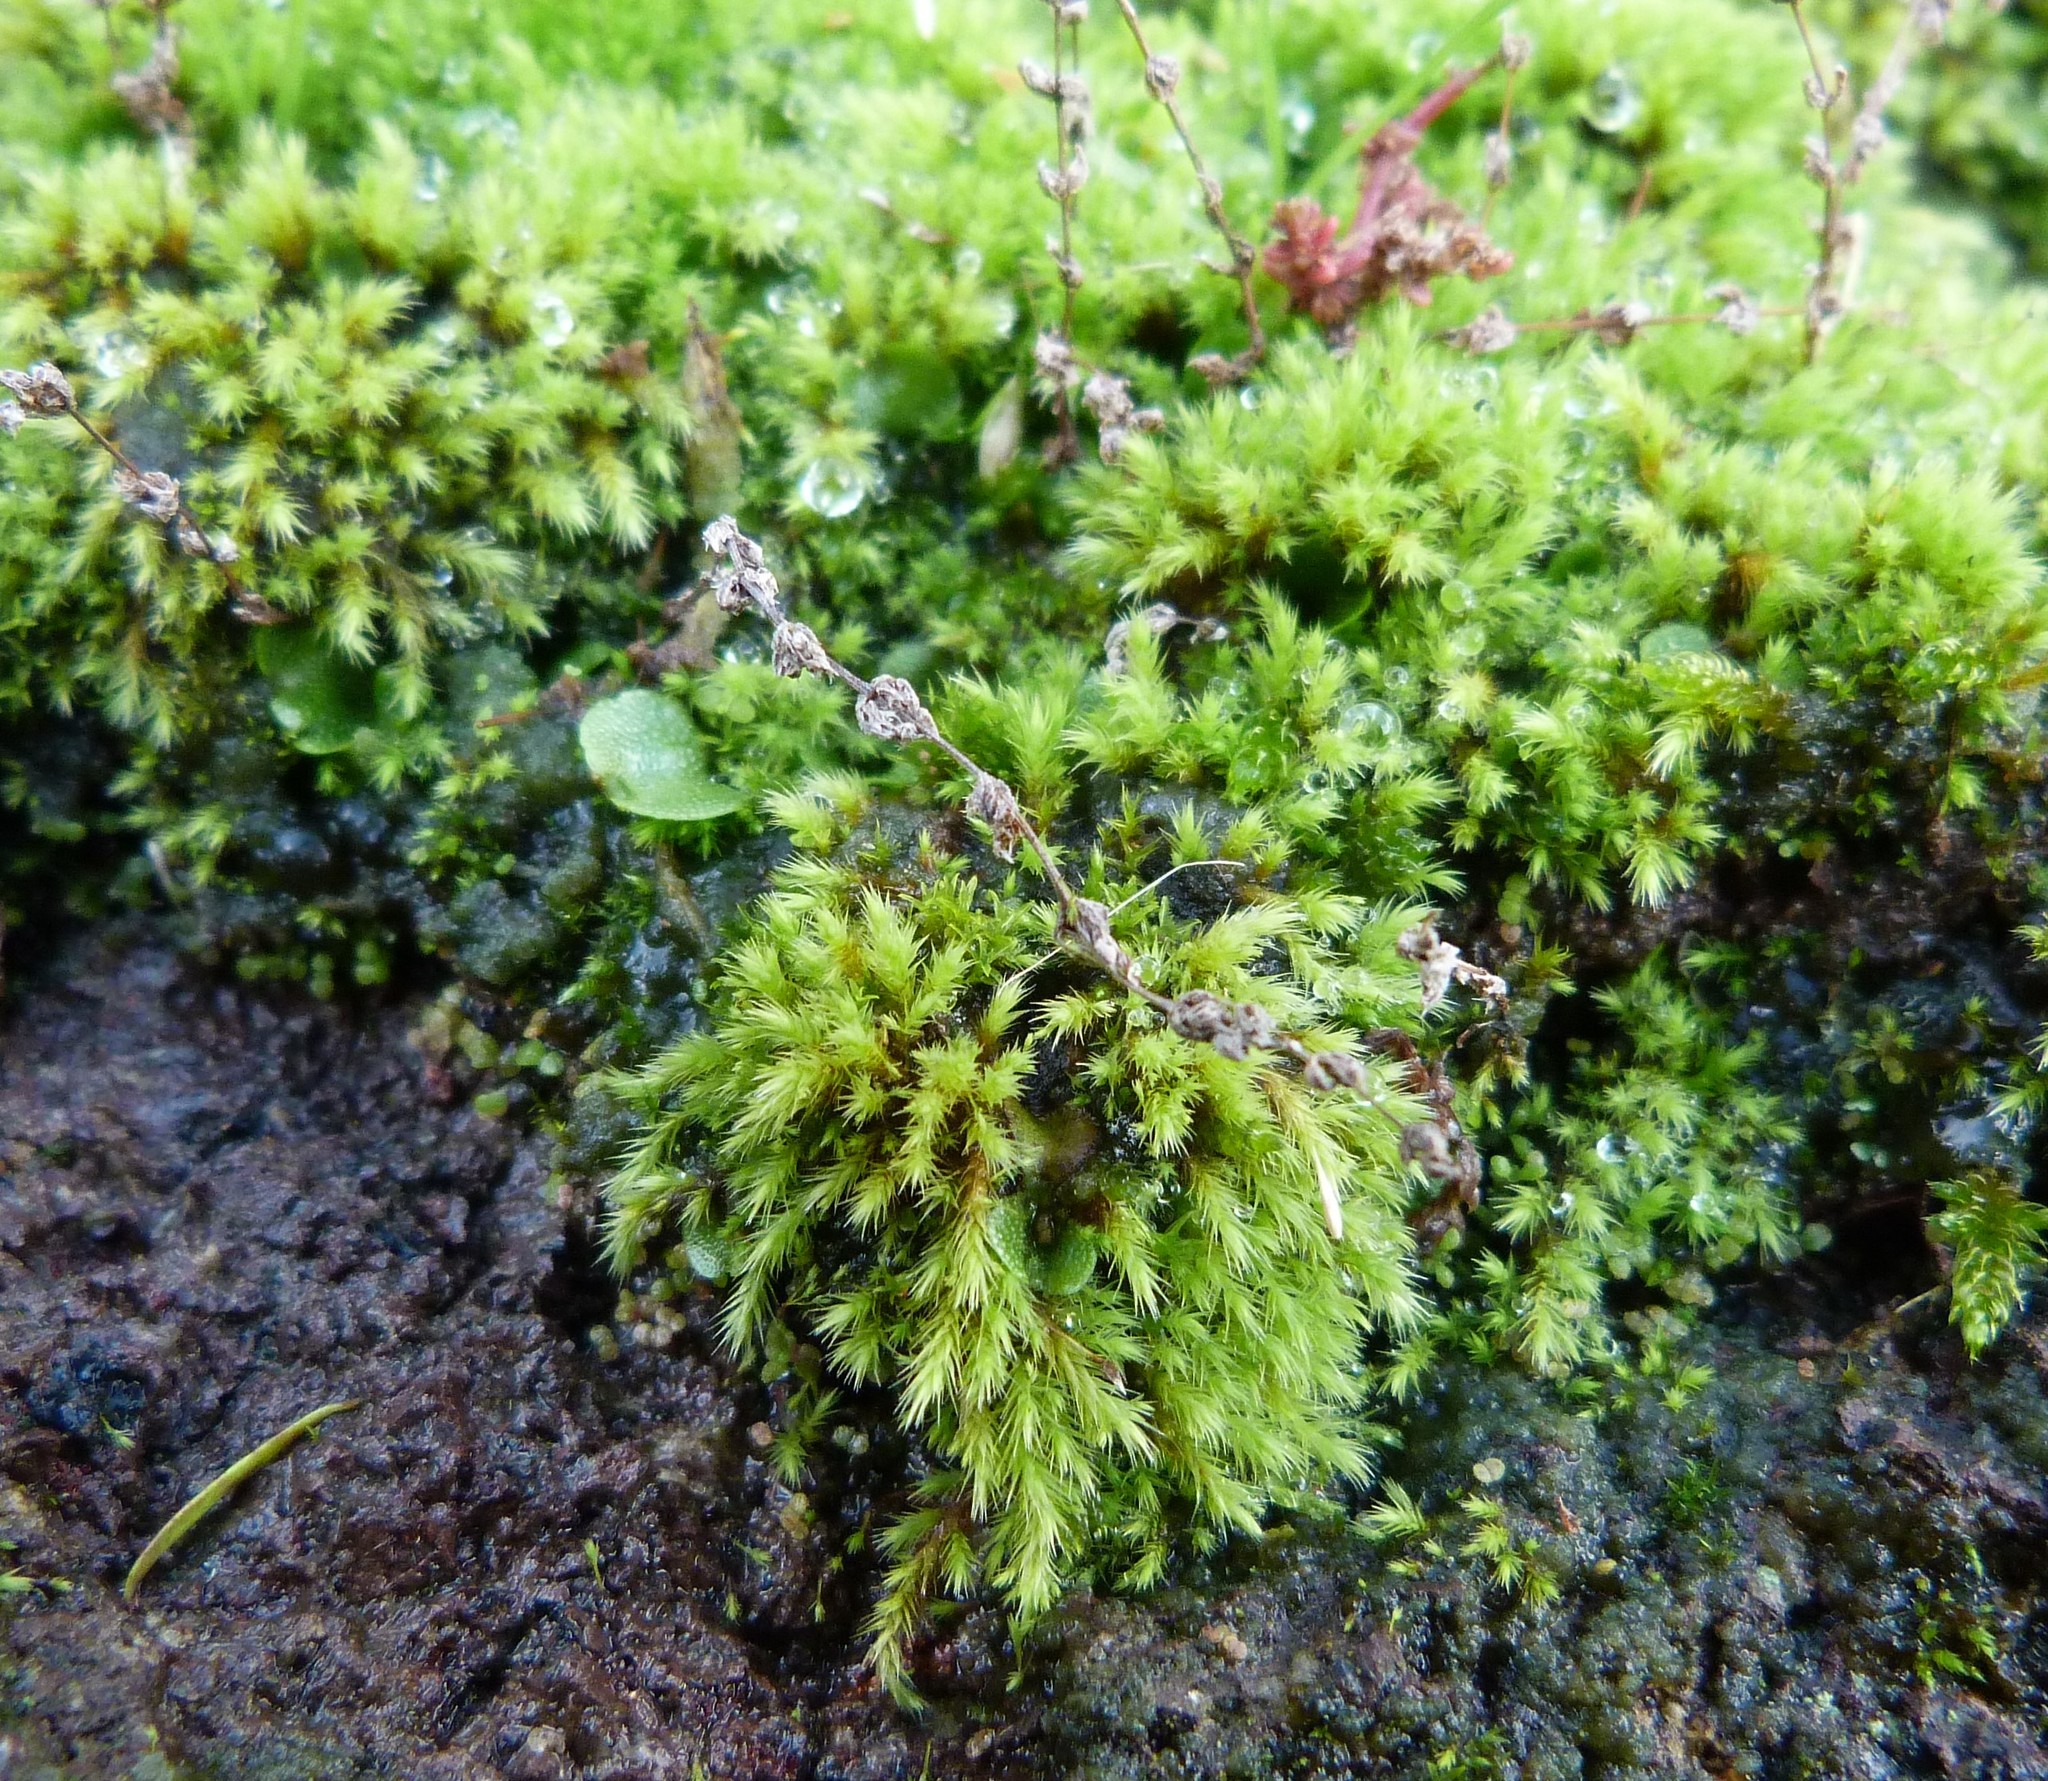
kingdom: Plantae
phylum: Bryophyta
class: Bryopsida
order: Bartramiales
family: Bartramiaceae
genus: Philonotis
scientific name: Philonotis pyriformis
